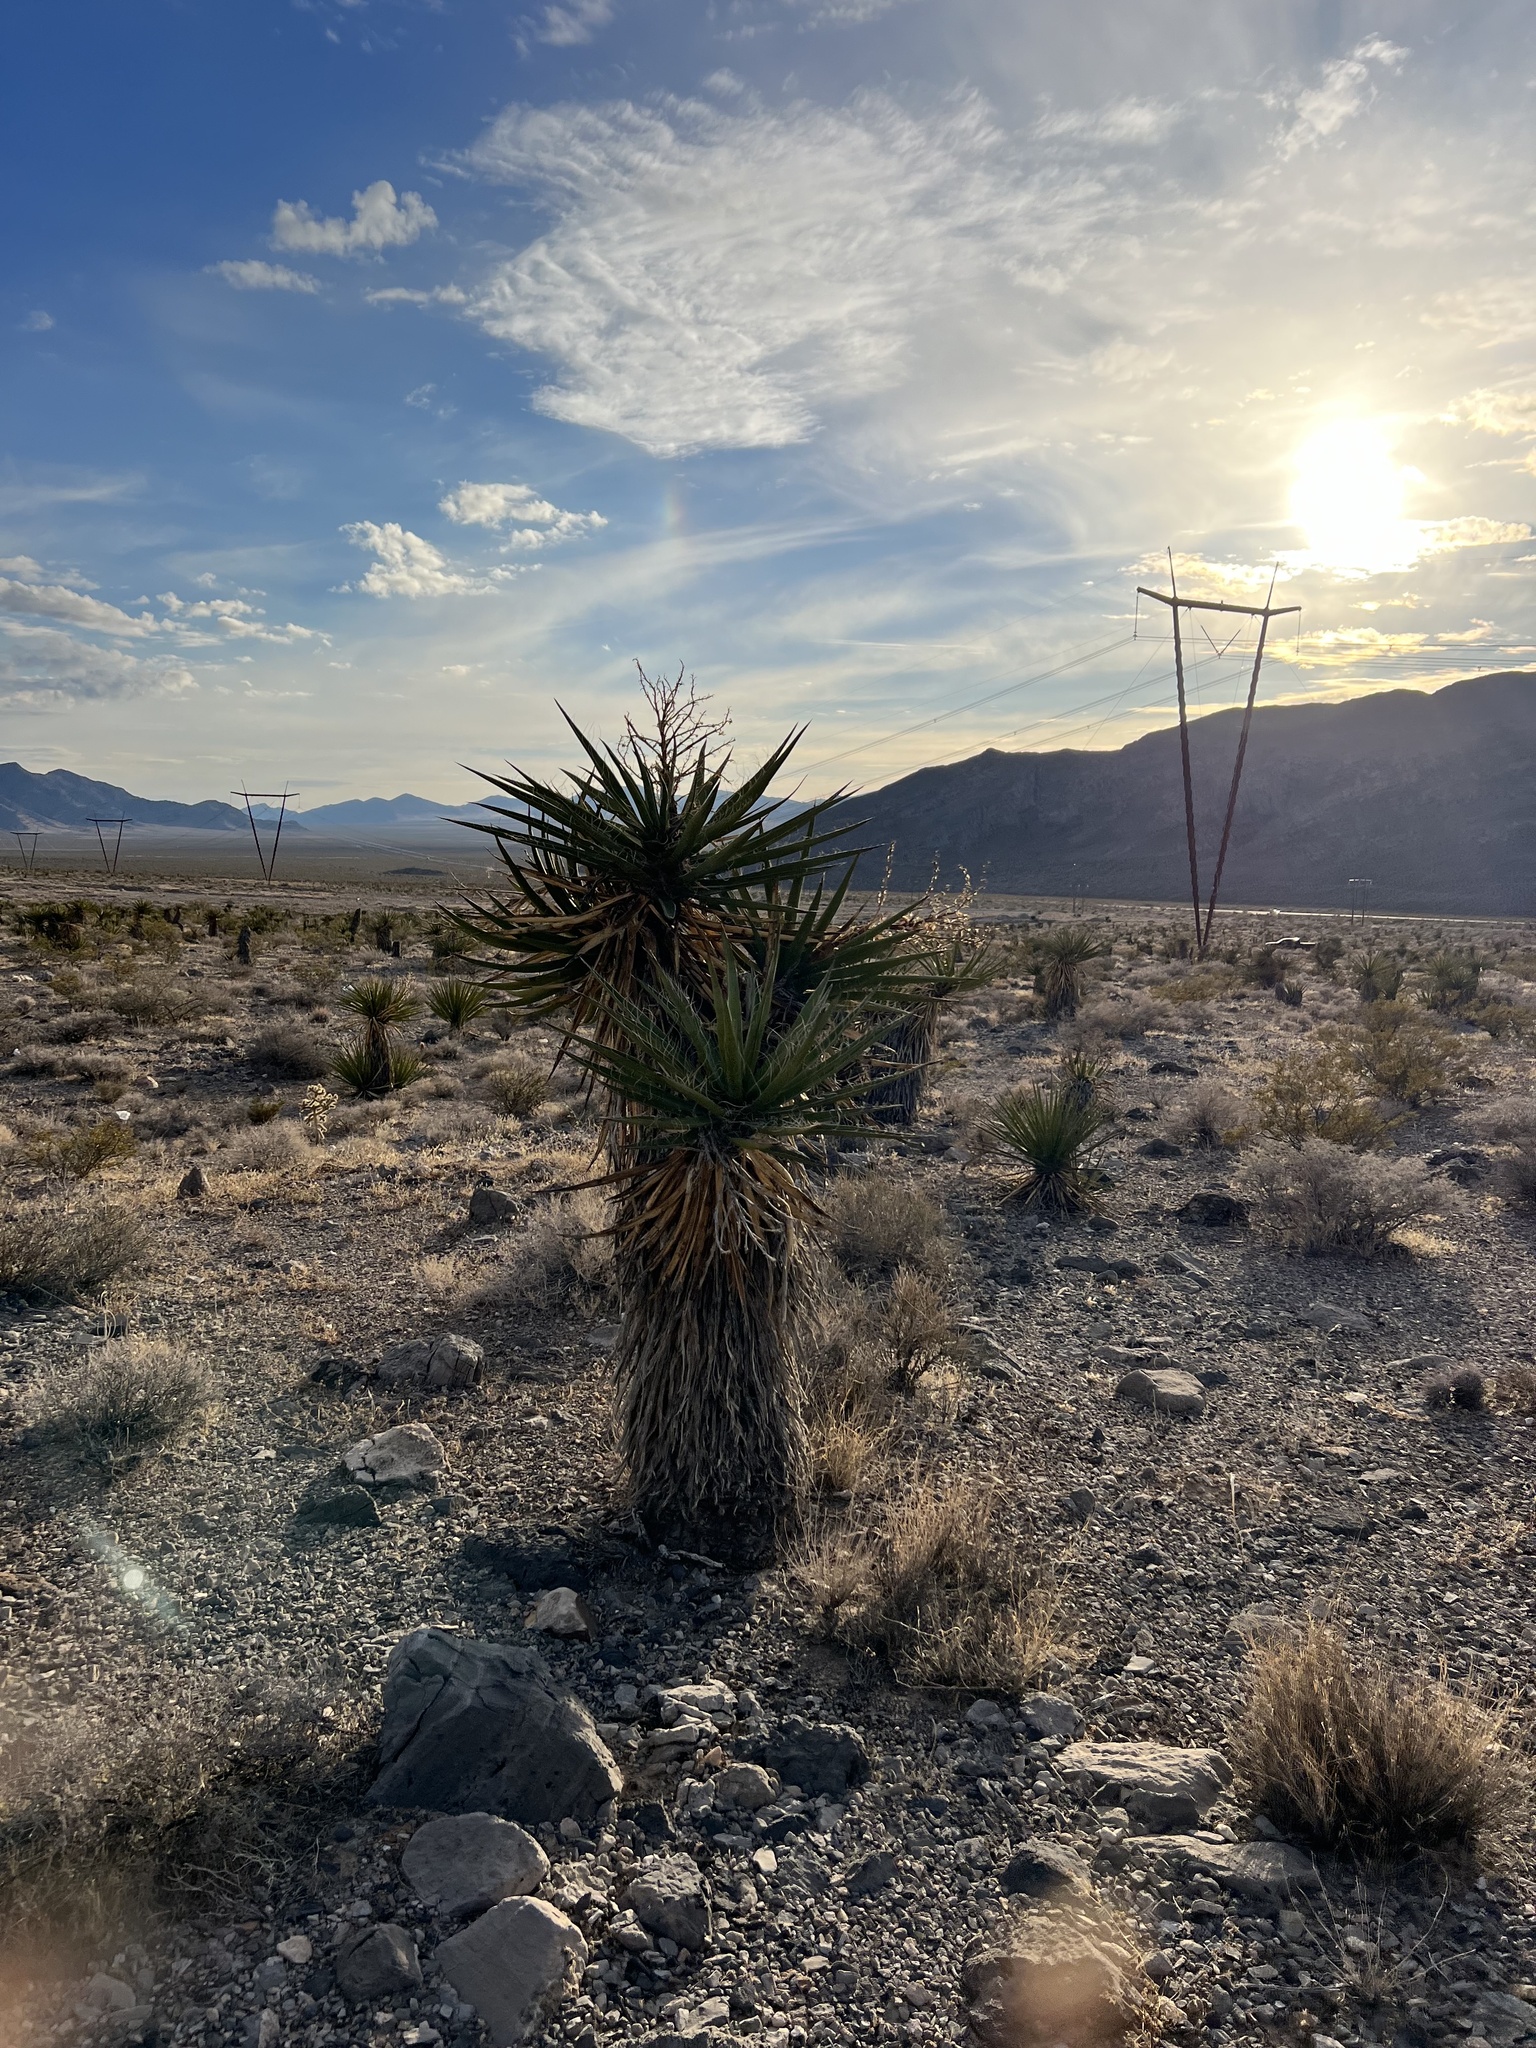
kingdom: Plantae
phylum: Tracheophyta
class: Liliopsida
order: Asparagales
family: Asparagaceae
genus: Yucca
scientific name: Yucca schidigera
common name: Mojave yucca
